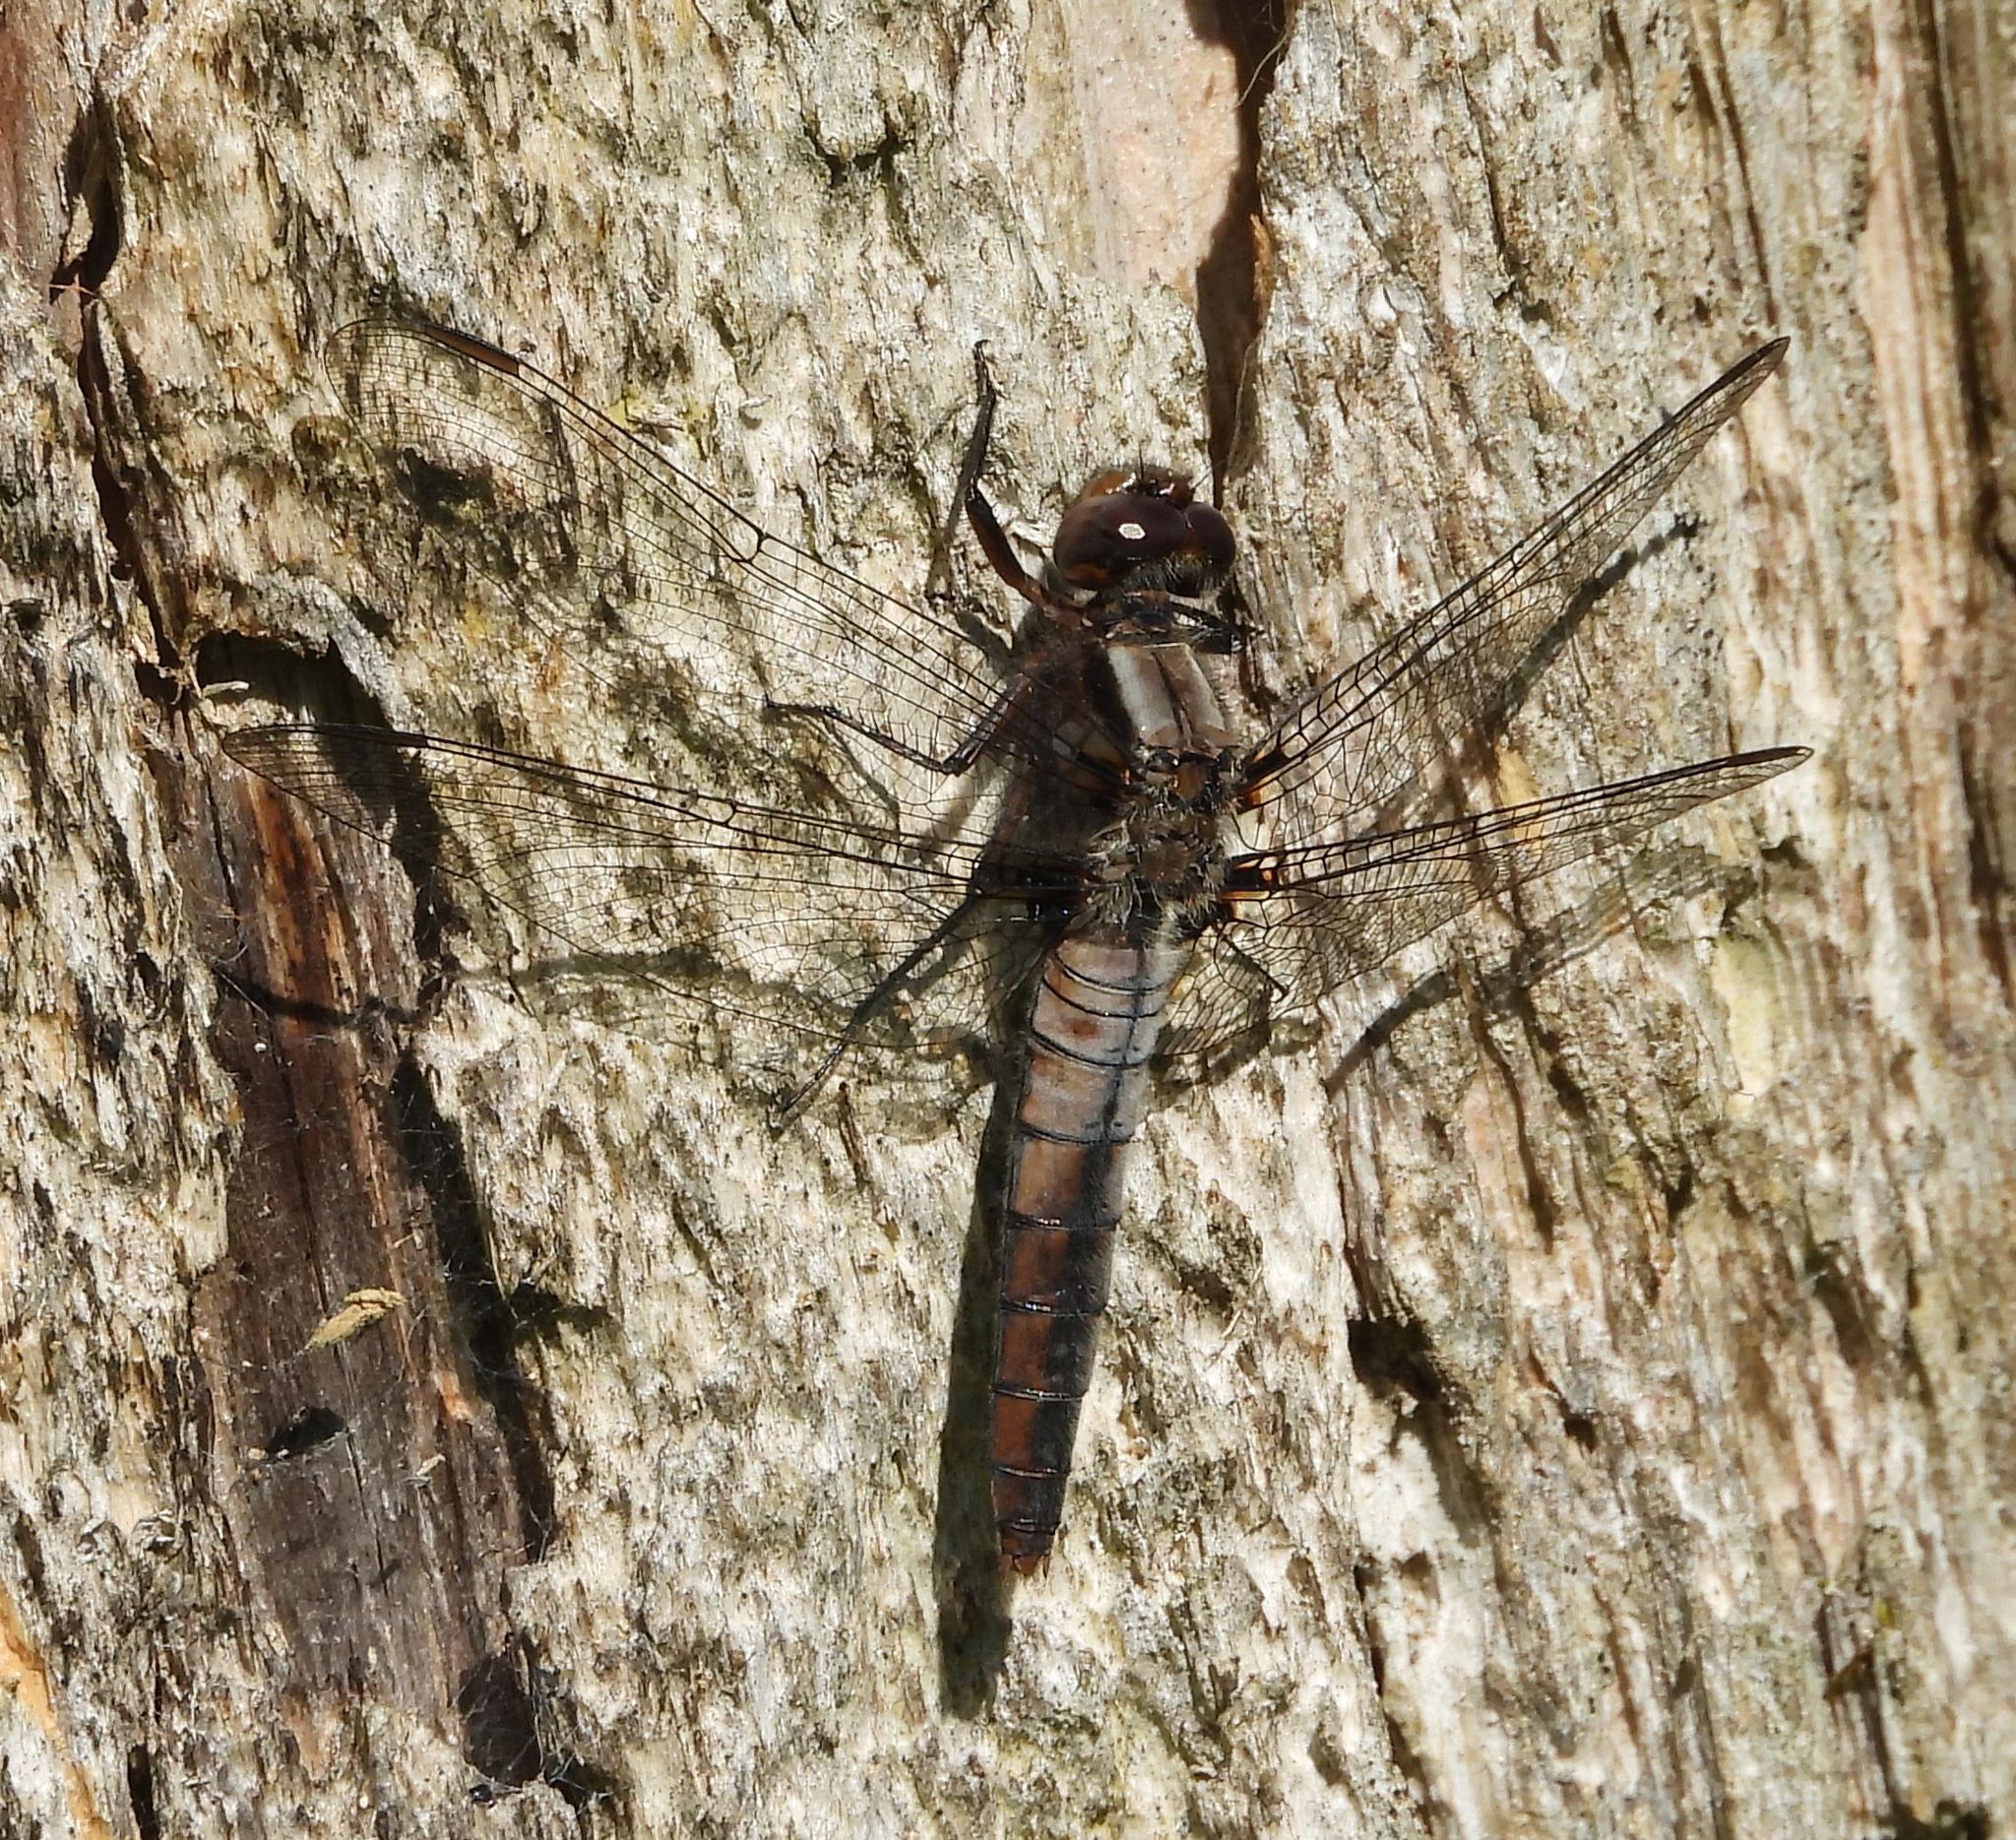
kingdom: Animalia
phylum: Arthropoda
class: Insecta
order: Odonata
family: Libellulidae
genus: Ladona
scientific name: Ladona julia
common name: Chalk-fronted corporal
